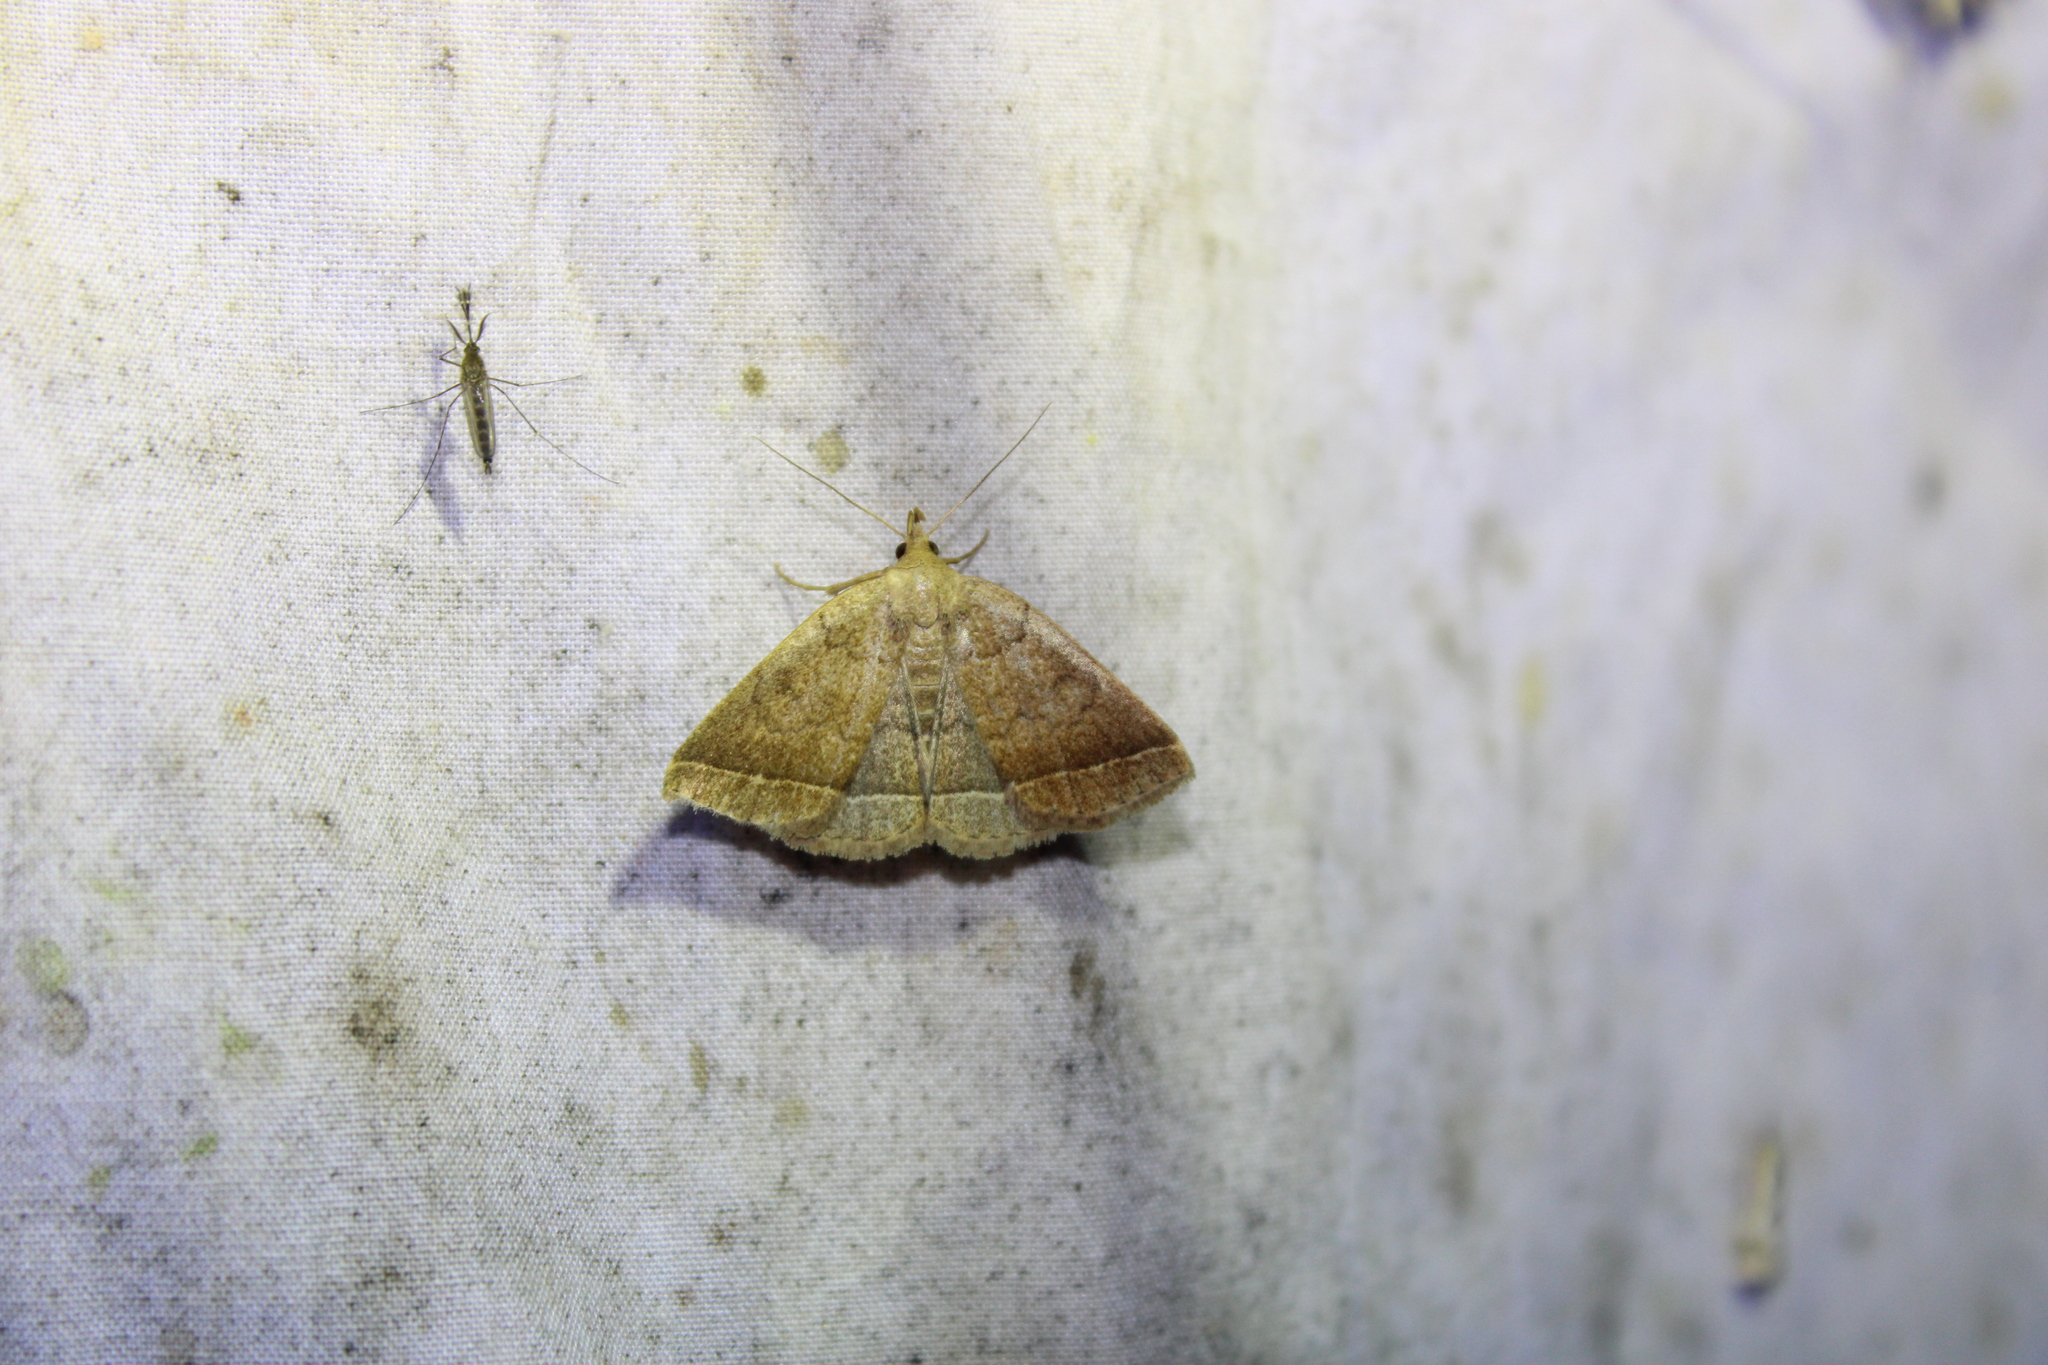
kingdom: Animalia
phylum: Arthropoda
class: Insecta
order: Lepidoptera
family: Erebidae
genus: Zanclognatha
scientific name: Zanclognatha jacchusalis
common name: Yellowish zanclognatha
